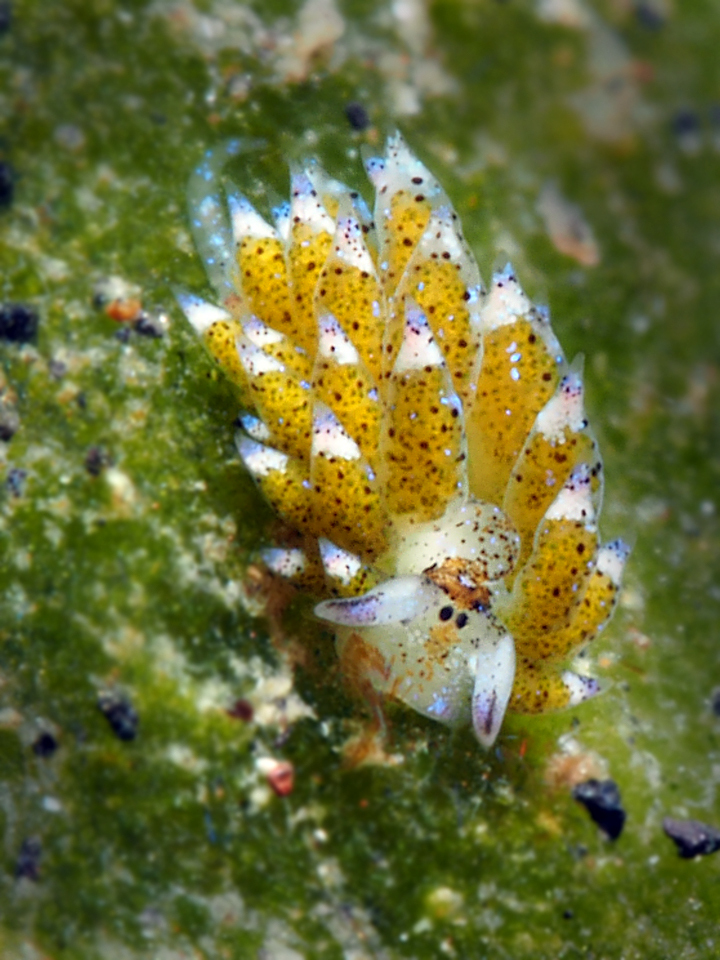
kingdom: Animalia
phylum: Mollusca
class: Gastropoda
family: Costasiellidae
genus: Costasiella
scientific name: Costasiella kuroshimae
